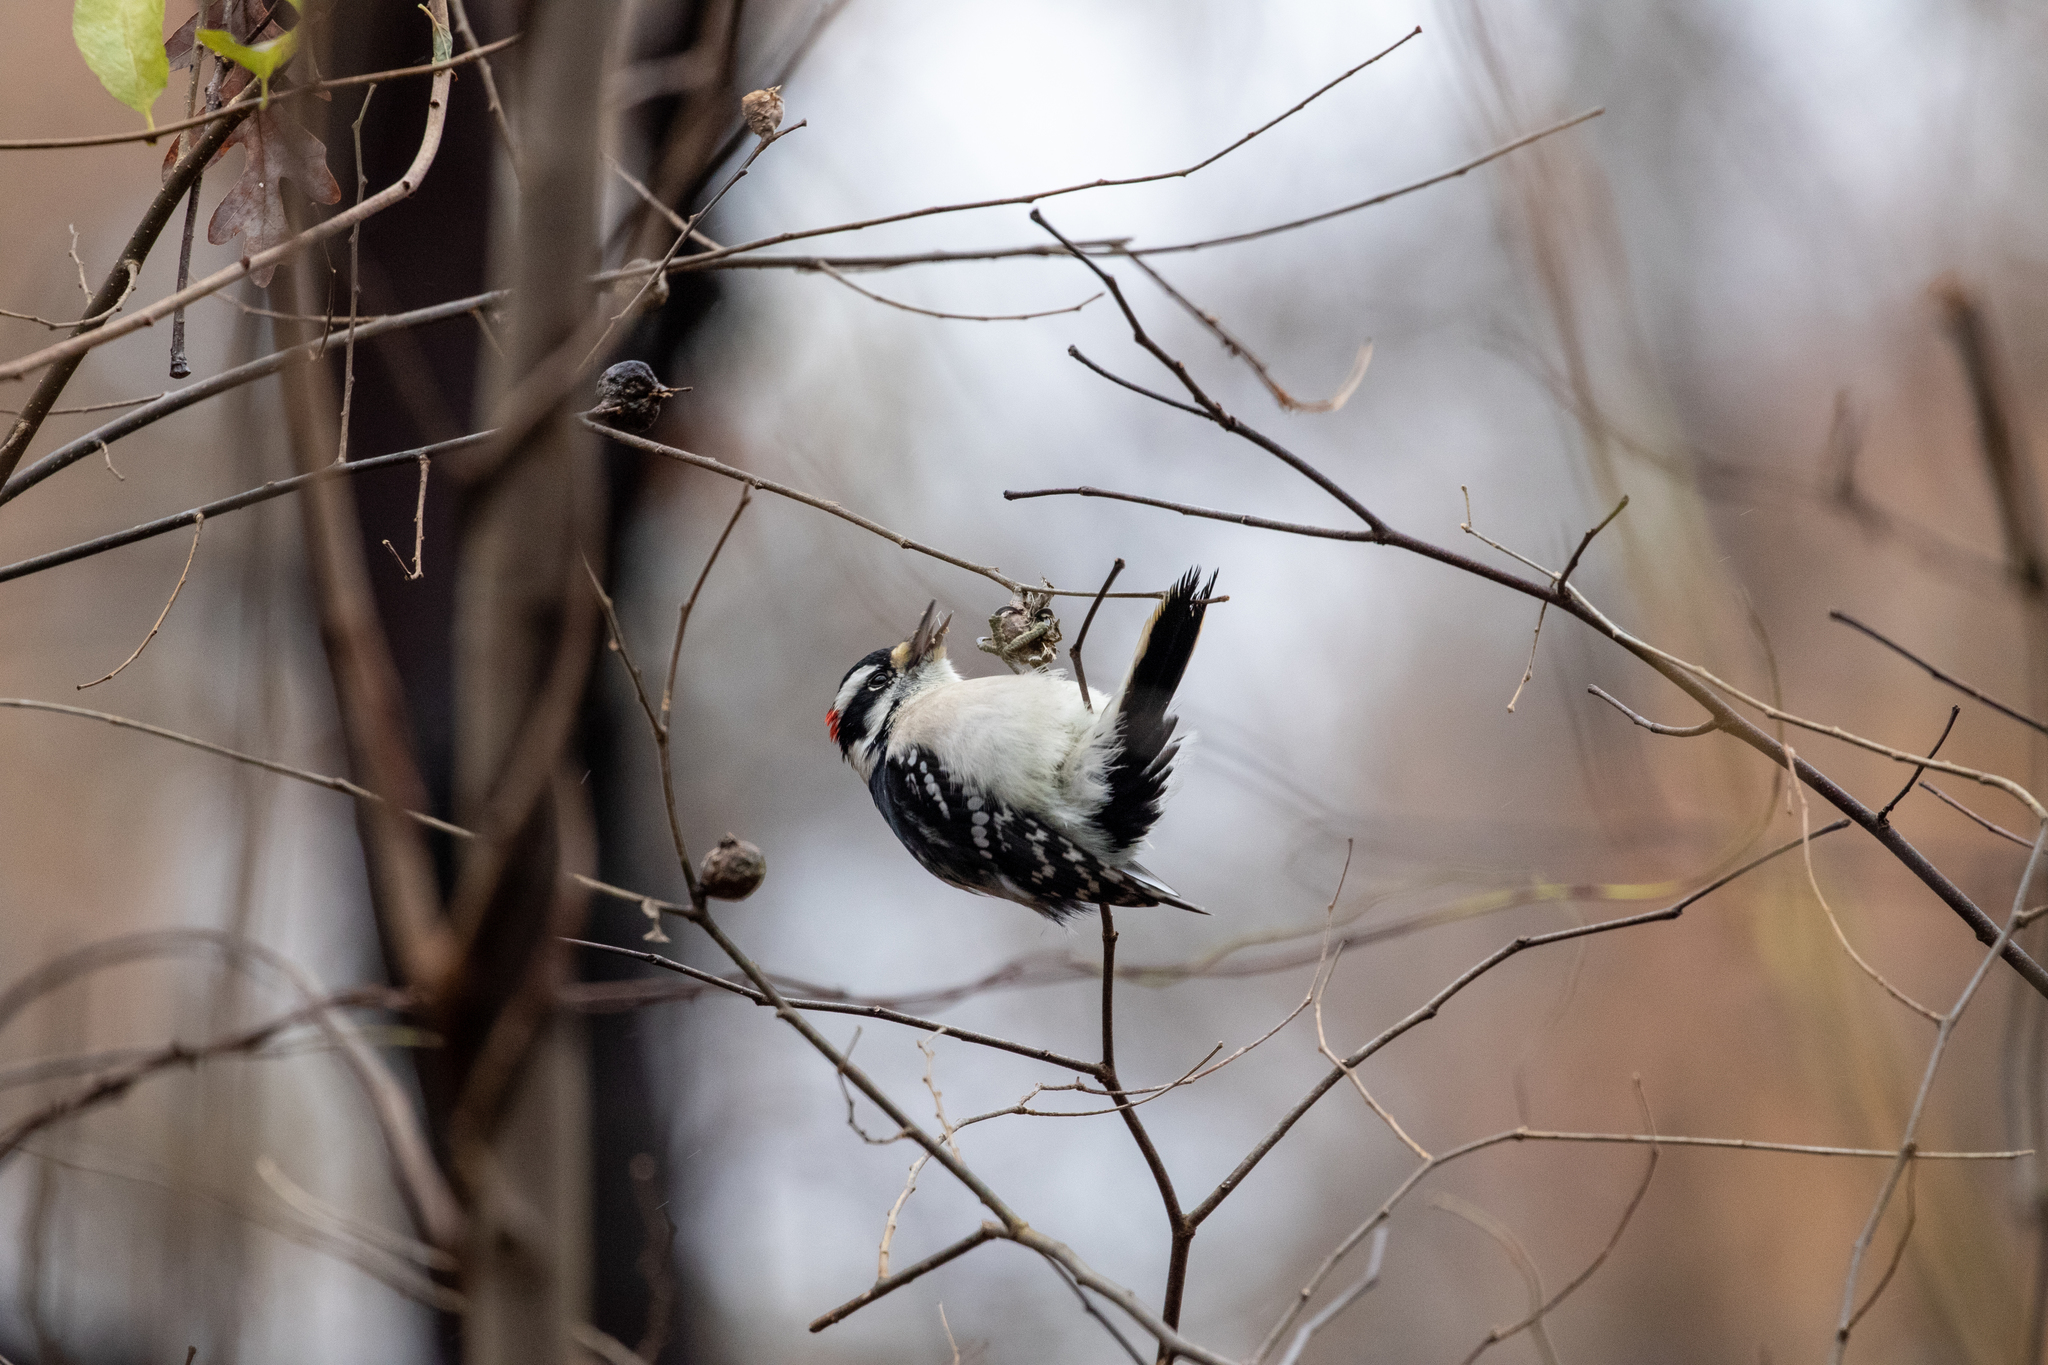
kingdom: Animalia
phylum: Chordata
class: Aves
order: Piciformes
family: Picidae
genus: Dryobates
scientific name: Dryobates pubescens
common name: Downy woodpecker
